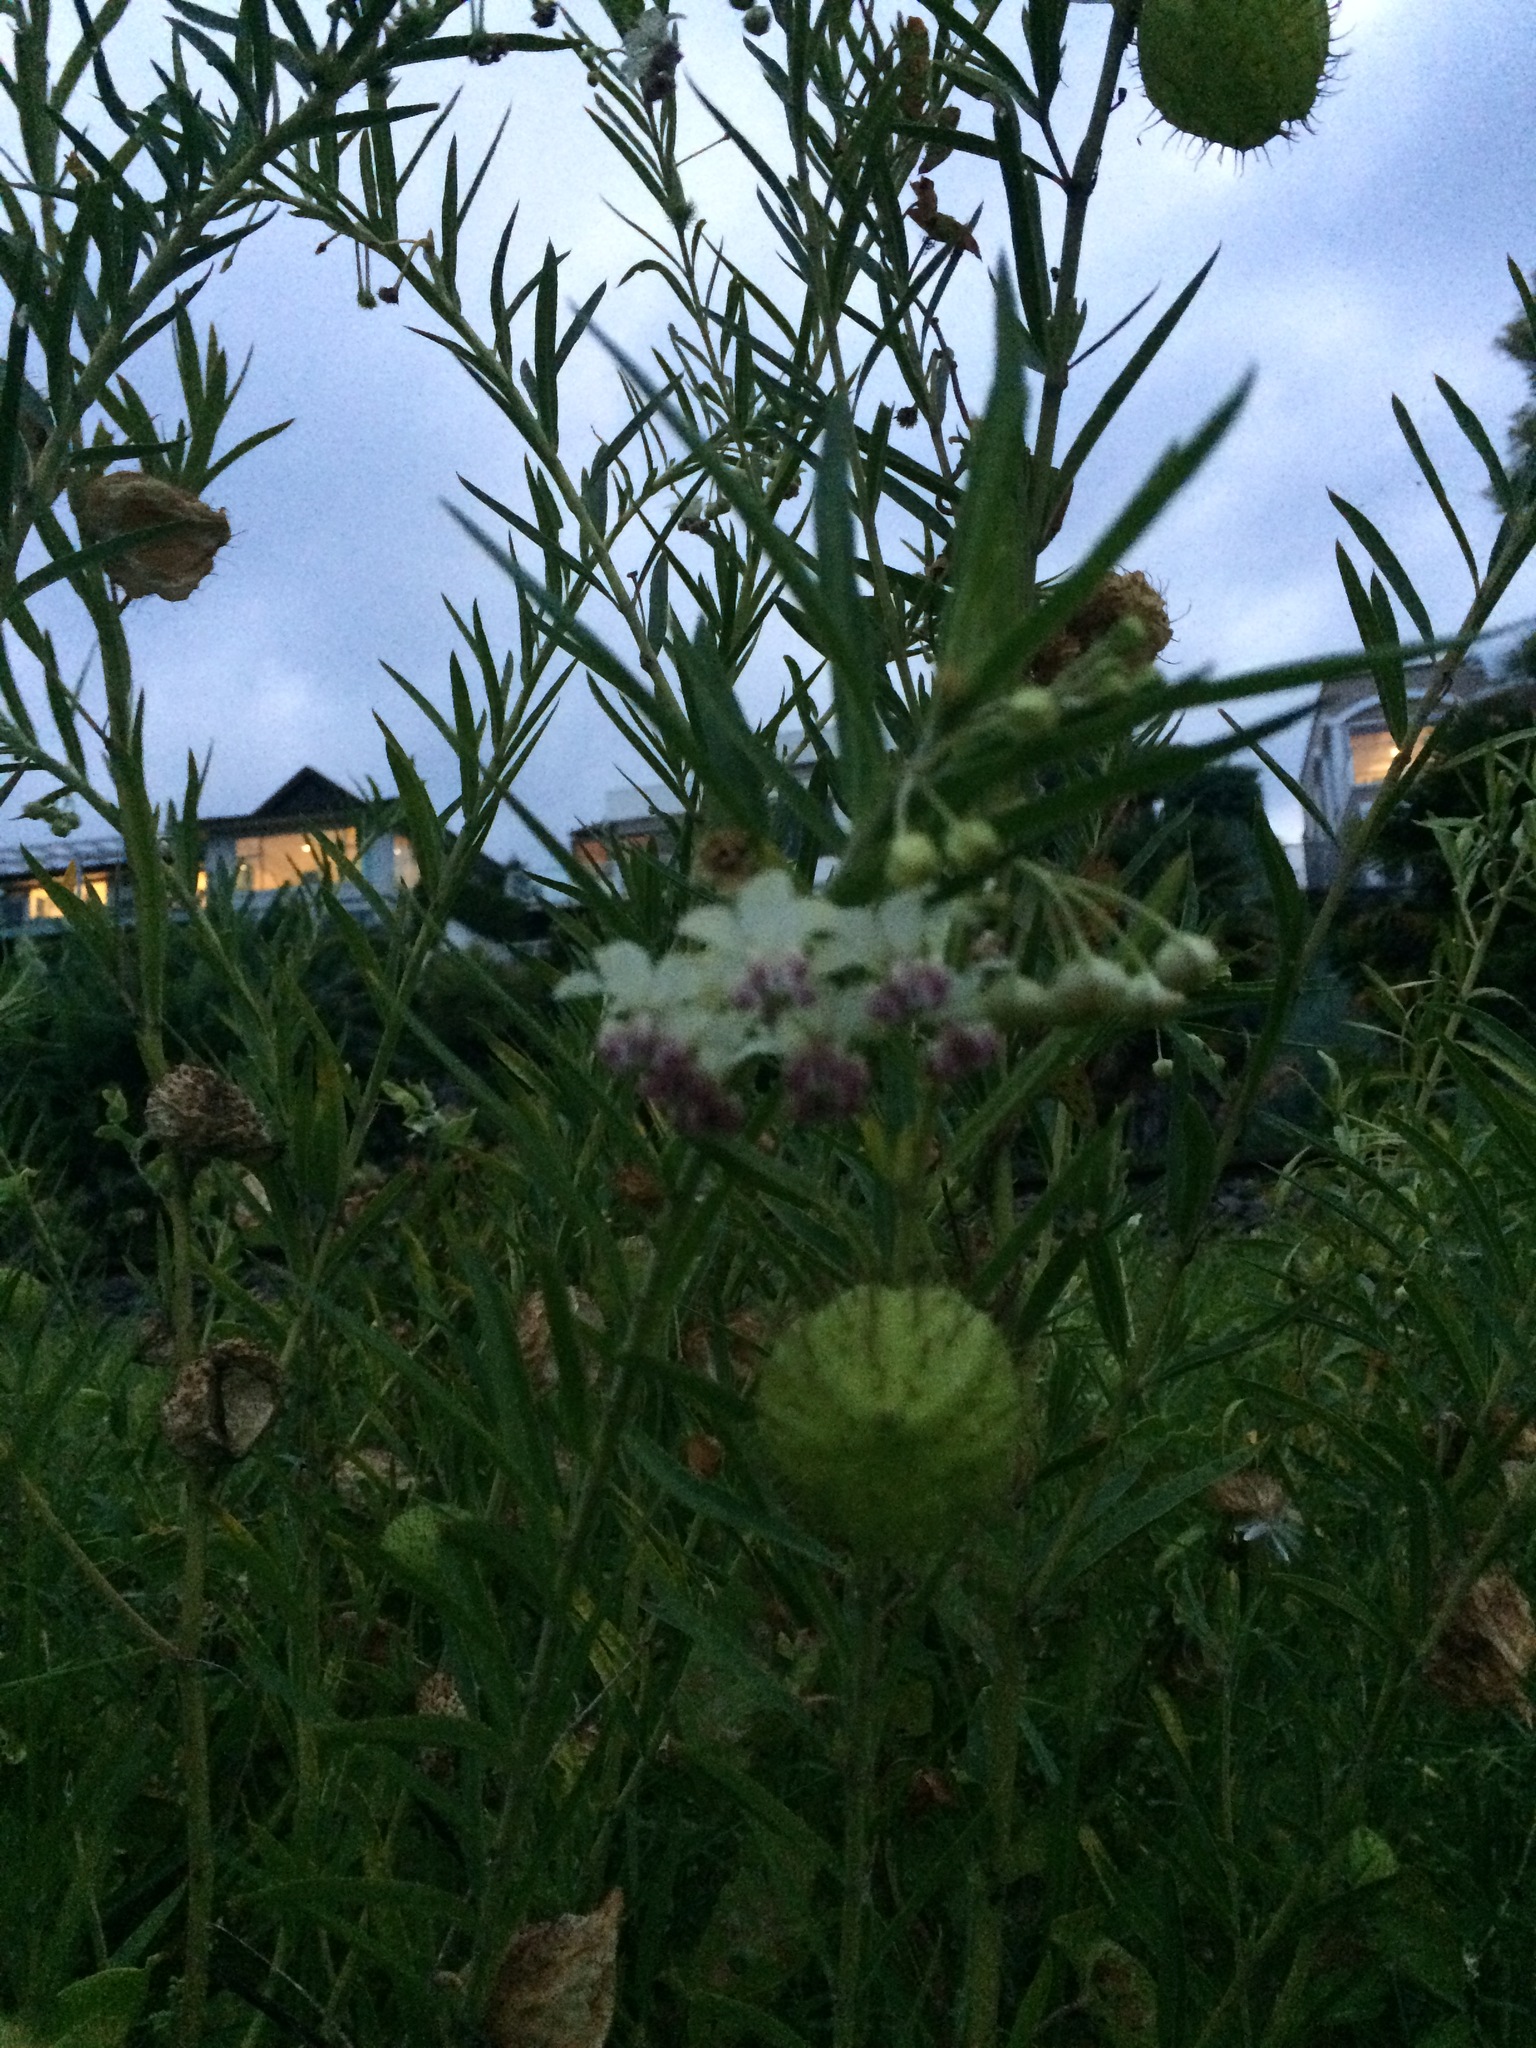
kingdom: Plantae
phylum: Tracheophyta
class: Magnoliopsida
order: Gentianales
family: Apocynaceae
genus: Gomphocarpus
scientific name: Gomphocarpus physocarpus
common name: Balloon cotton bush
